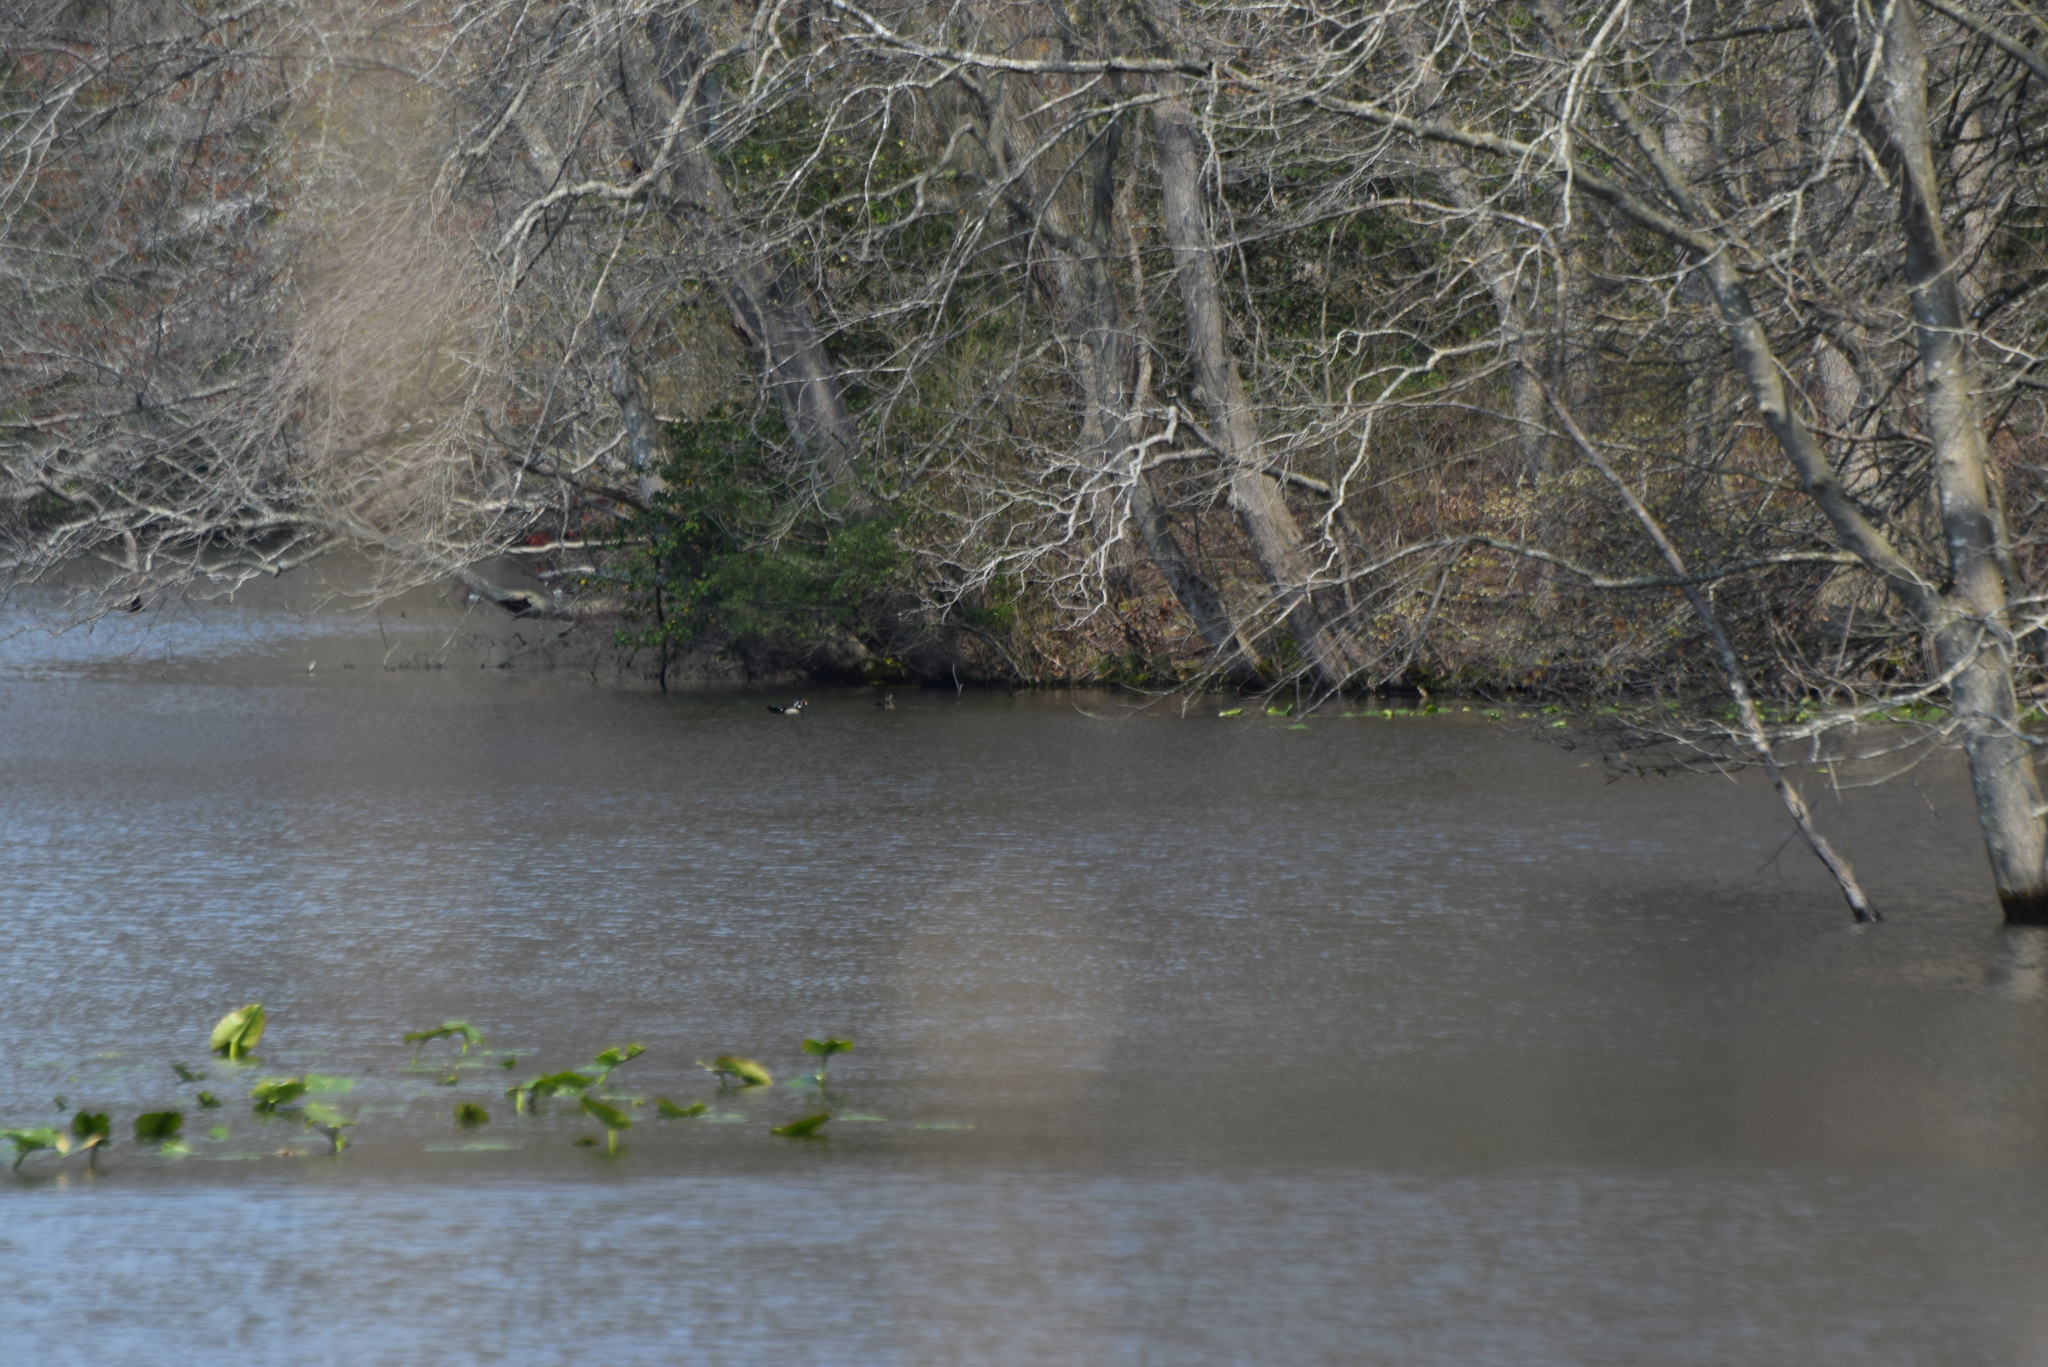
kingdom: Animalia
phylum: Chordata
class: Aves
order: Anseriformes
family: Anatidae
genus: Aix
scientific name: Aix sponsa
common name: Wood duck
